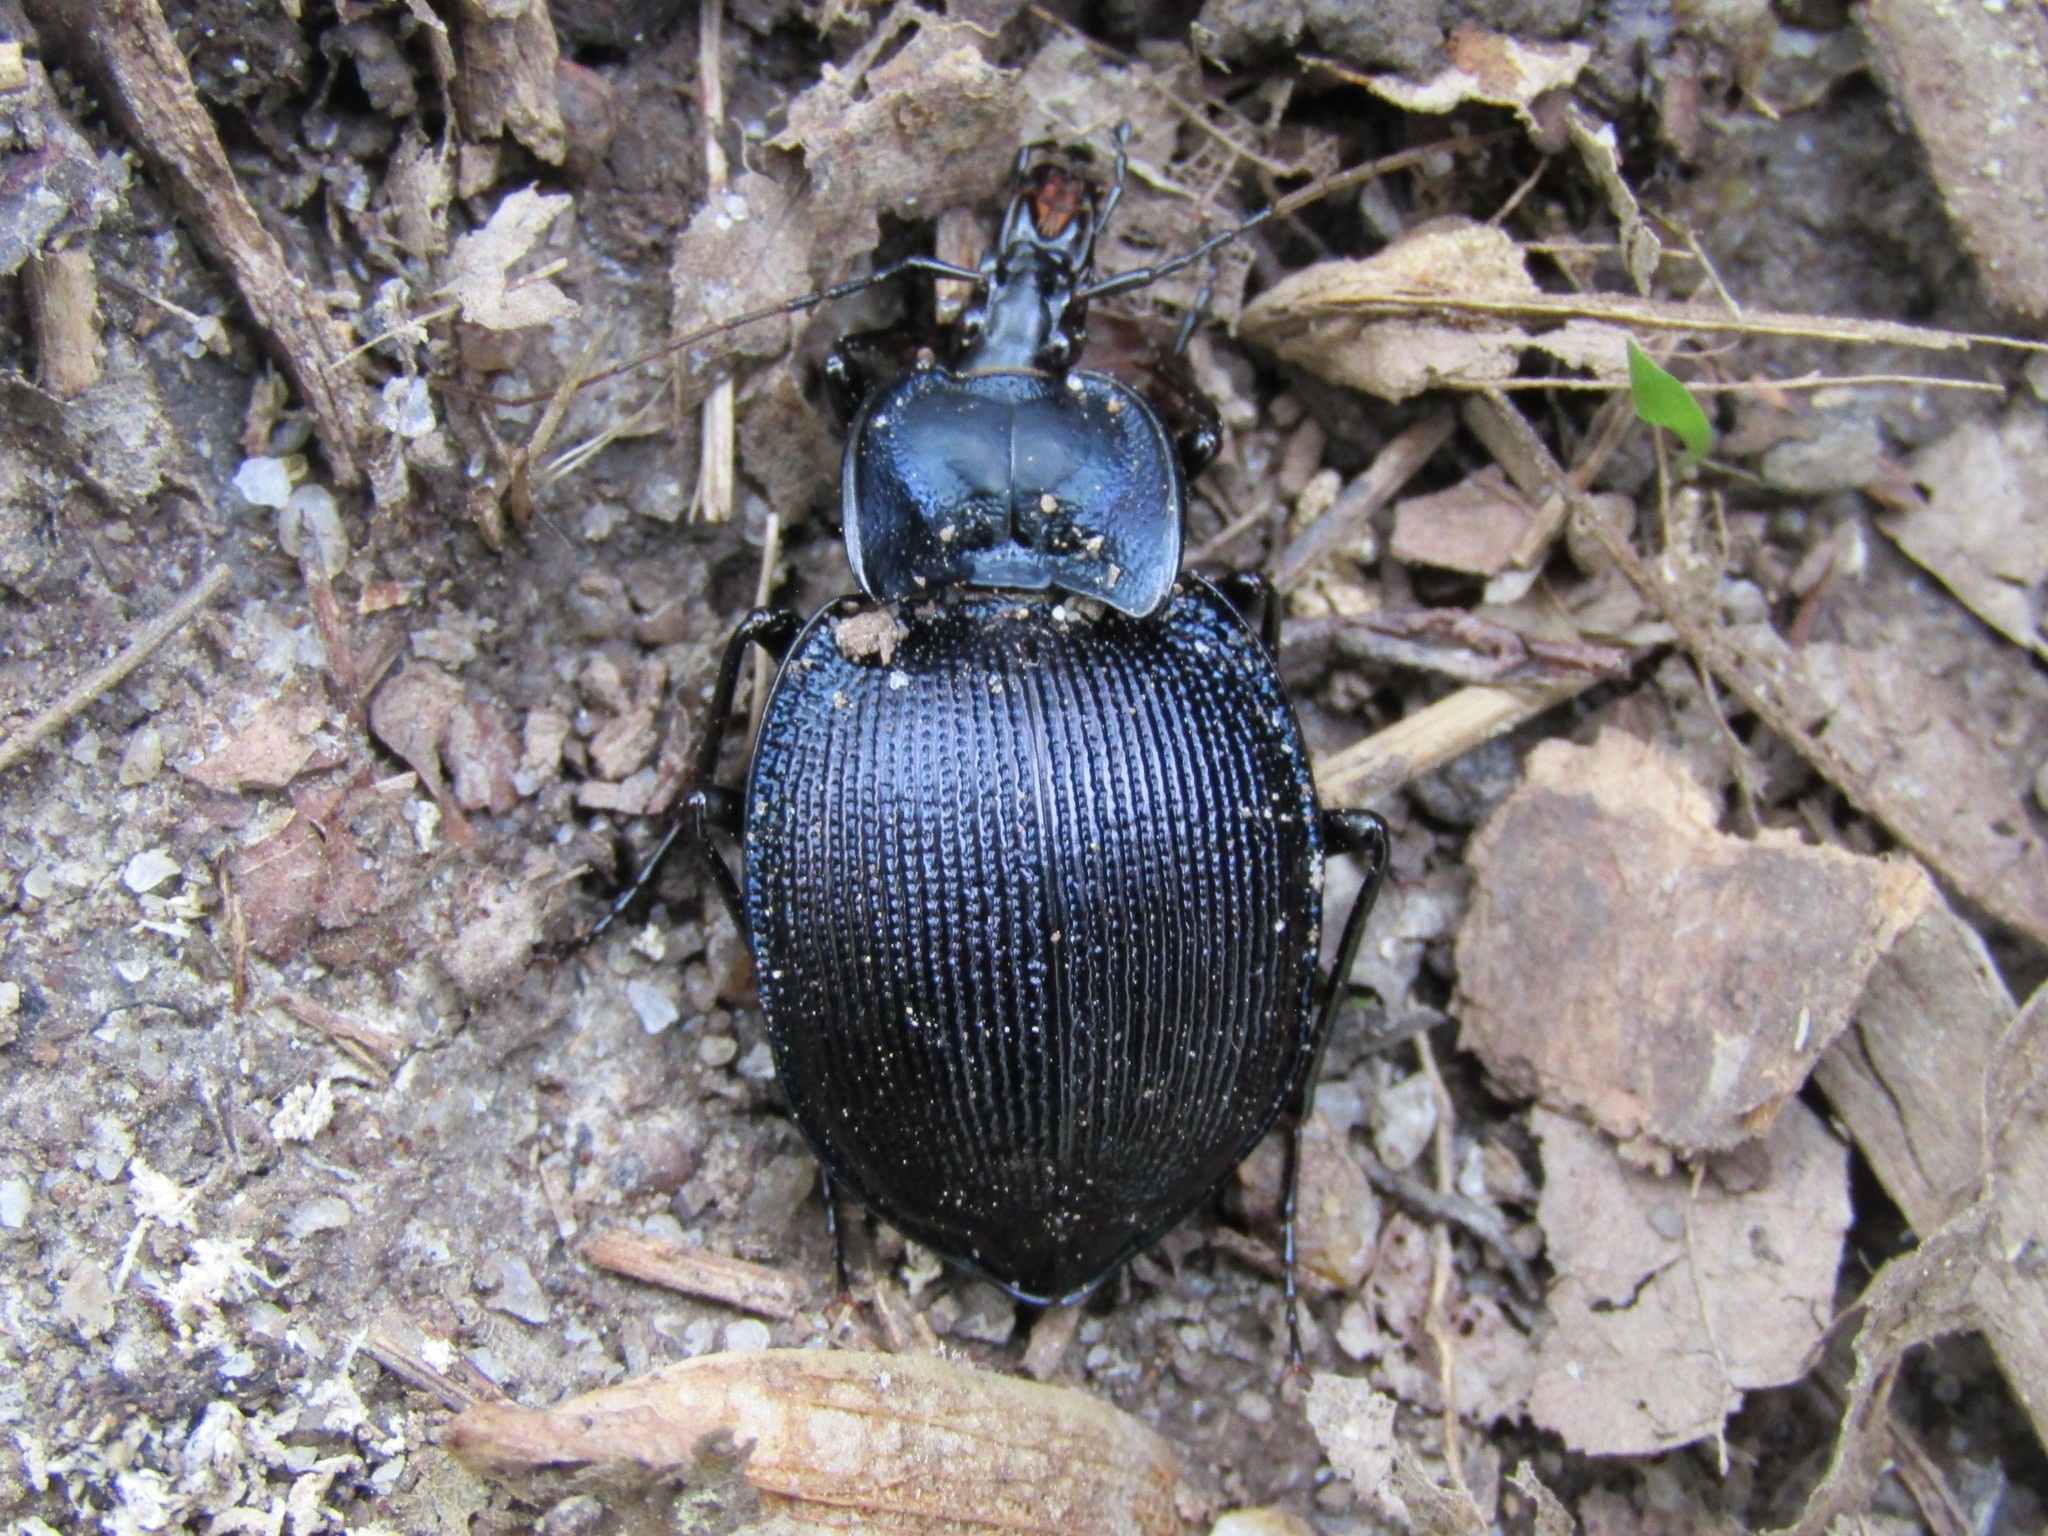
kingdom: Animalia
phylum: Arthropoda
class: Insecta
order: Coleoptera
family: Carabidae
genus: Scaphinotus
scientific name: Scaphinotus unicolor
